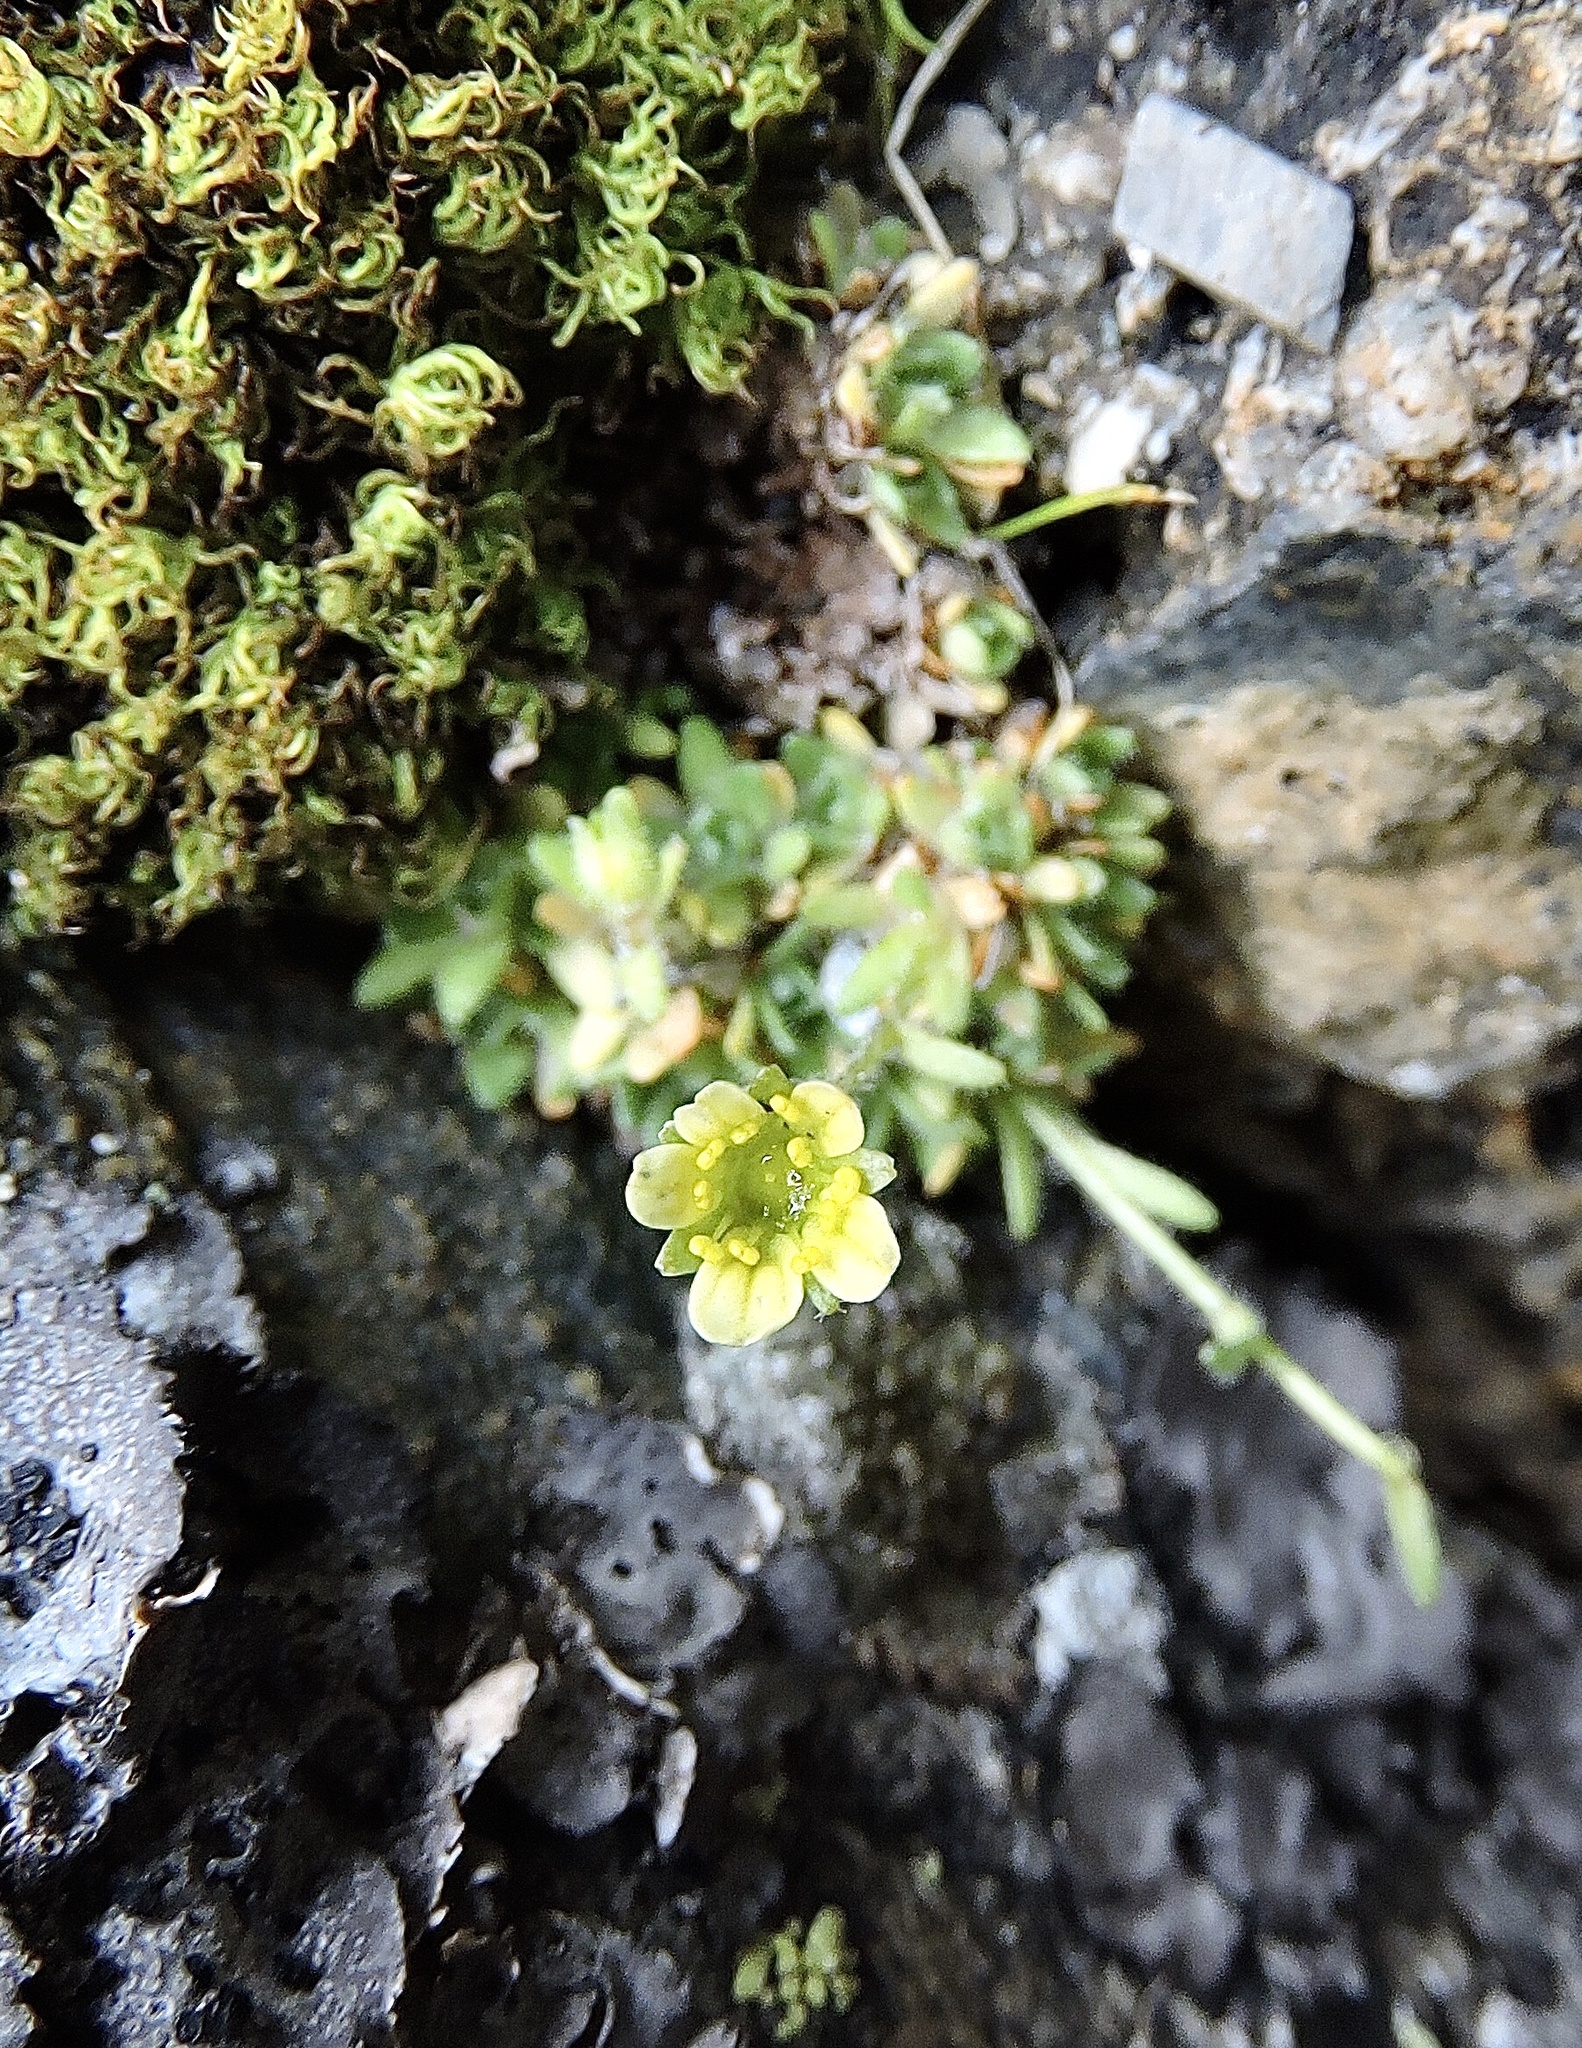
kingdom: Plantae
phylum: Tracheophyta
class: Magnoliopsida
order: Saxifragales
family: Saxifragaceae
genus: Saxifraga
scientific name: Saxifraga muscoides
